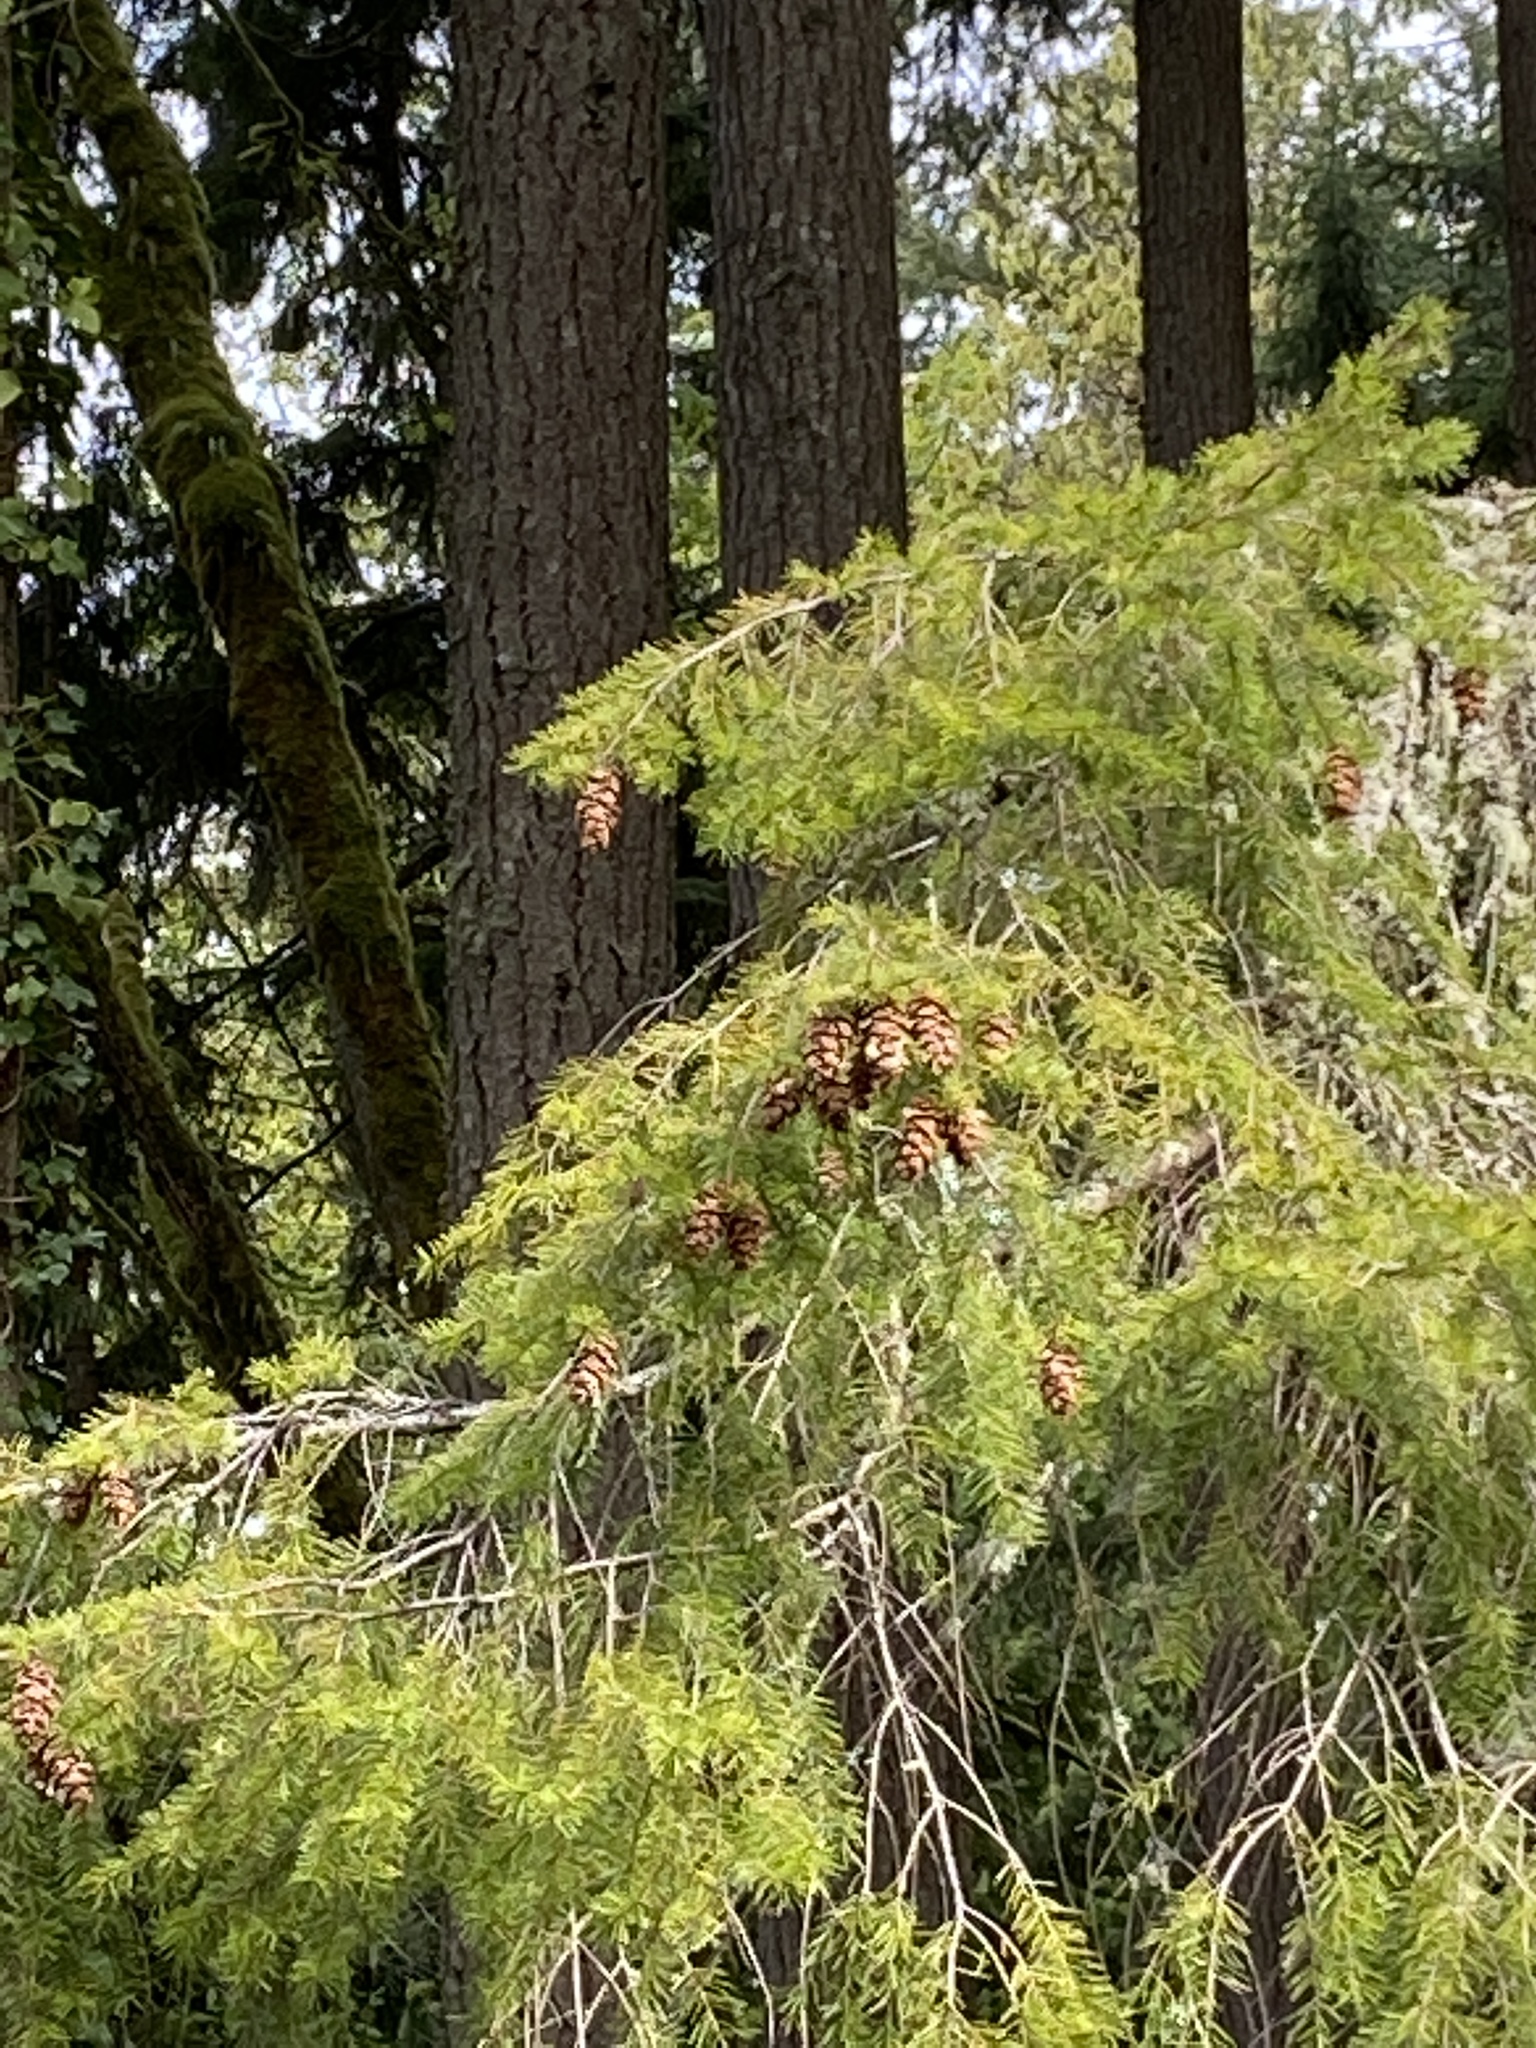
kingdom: Plantae
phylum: Tracheophyta
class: Pinopsida
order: Pinales
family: Pinaceae
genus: Pseudotsuga
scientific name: Pseudotsuga menziesii
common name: Douglas fir
